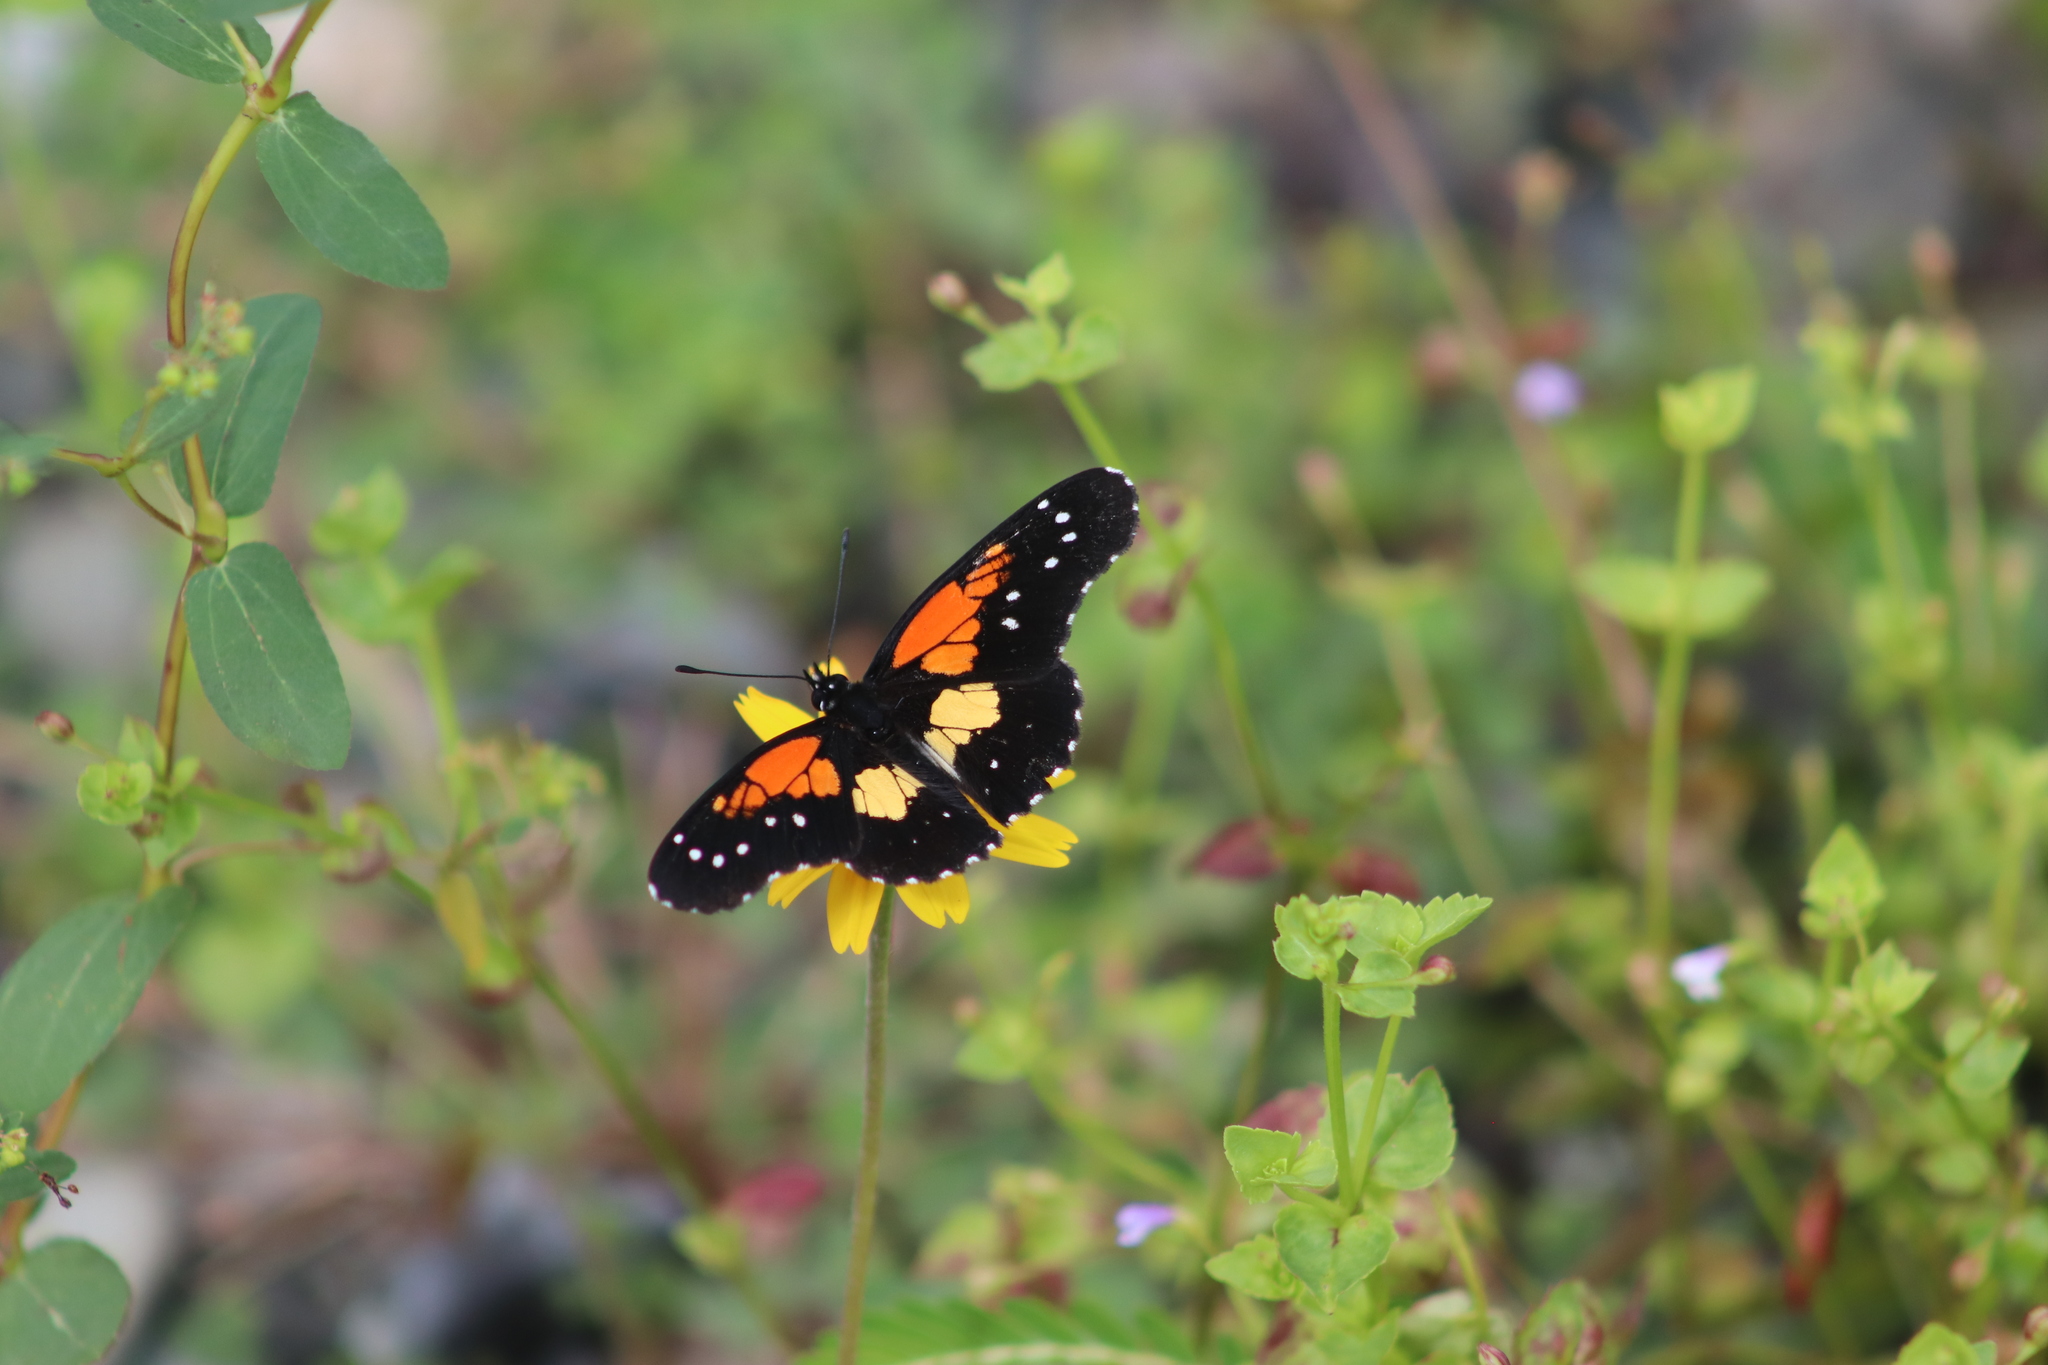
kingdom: Animalia
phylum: Arthropoda
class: Insecta
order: Lepidoptera
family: Nymphalidae
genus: Chlosyne
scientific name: Chlosyne gaudialis
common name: Gaudy checkerspot
